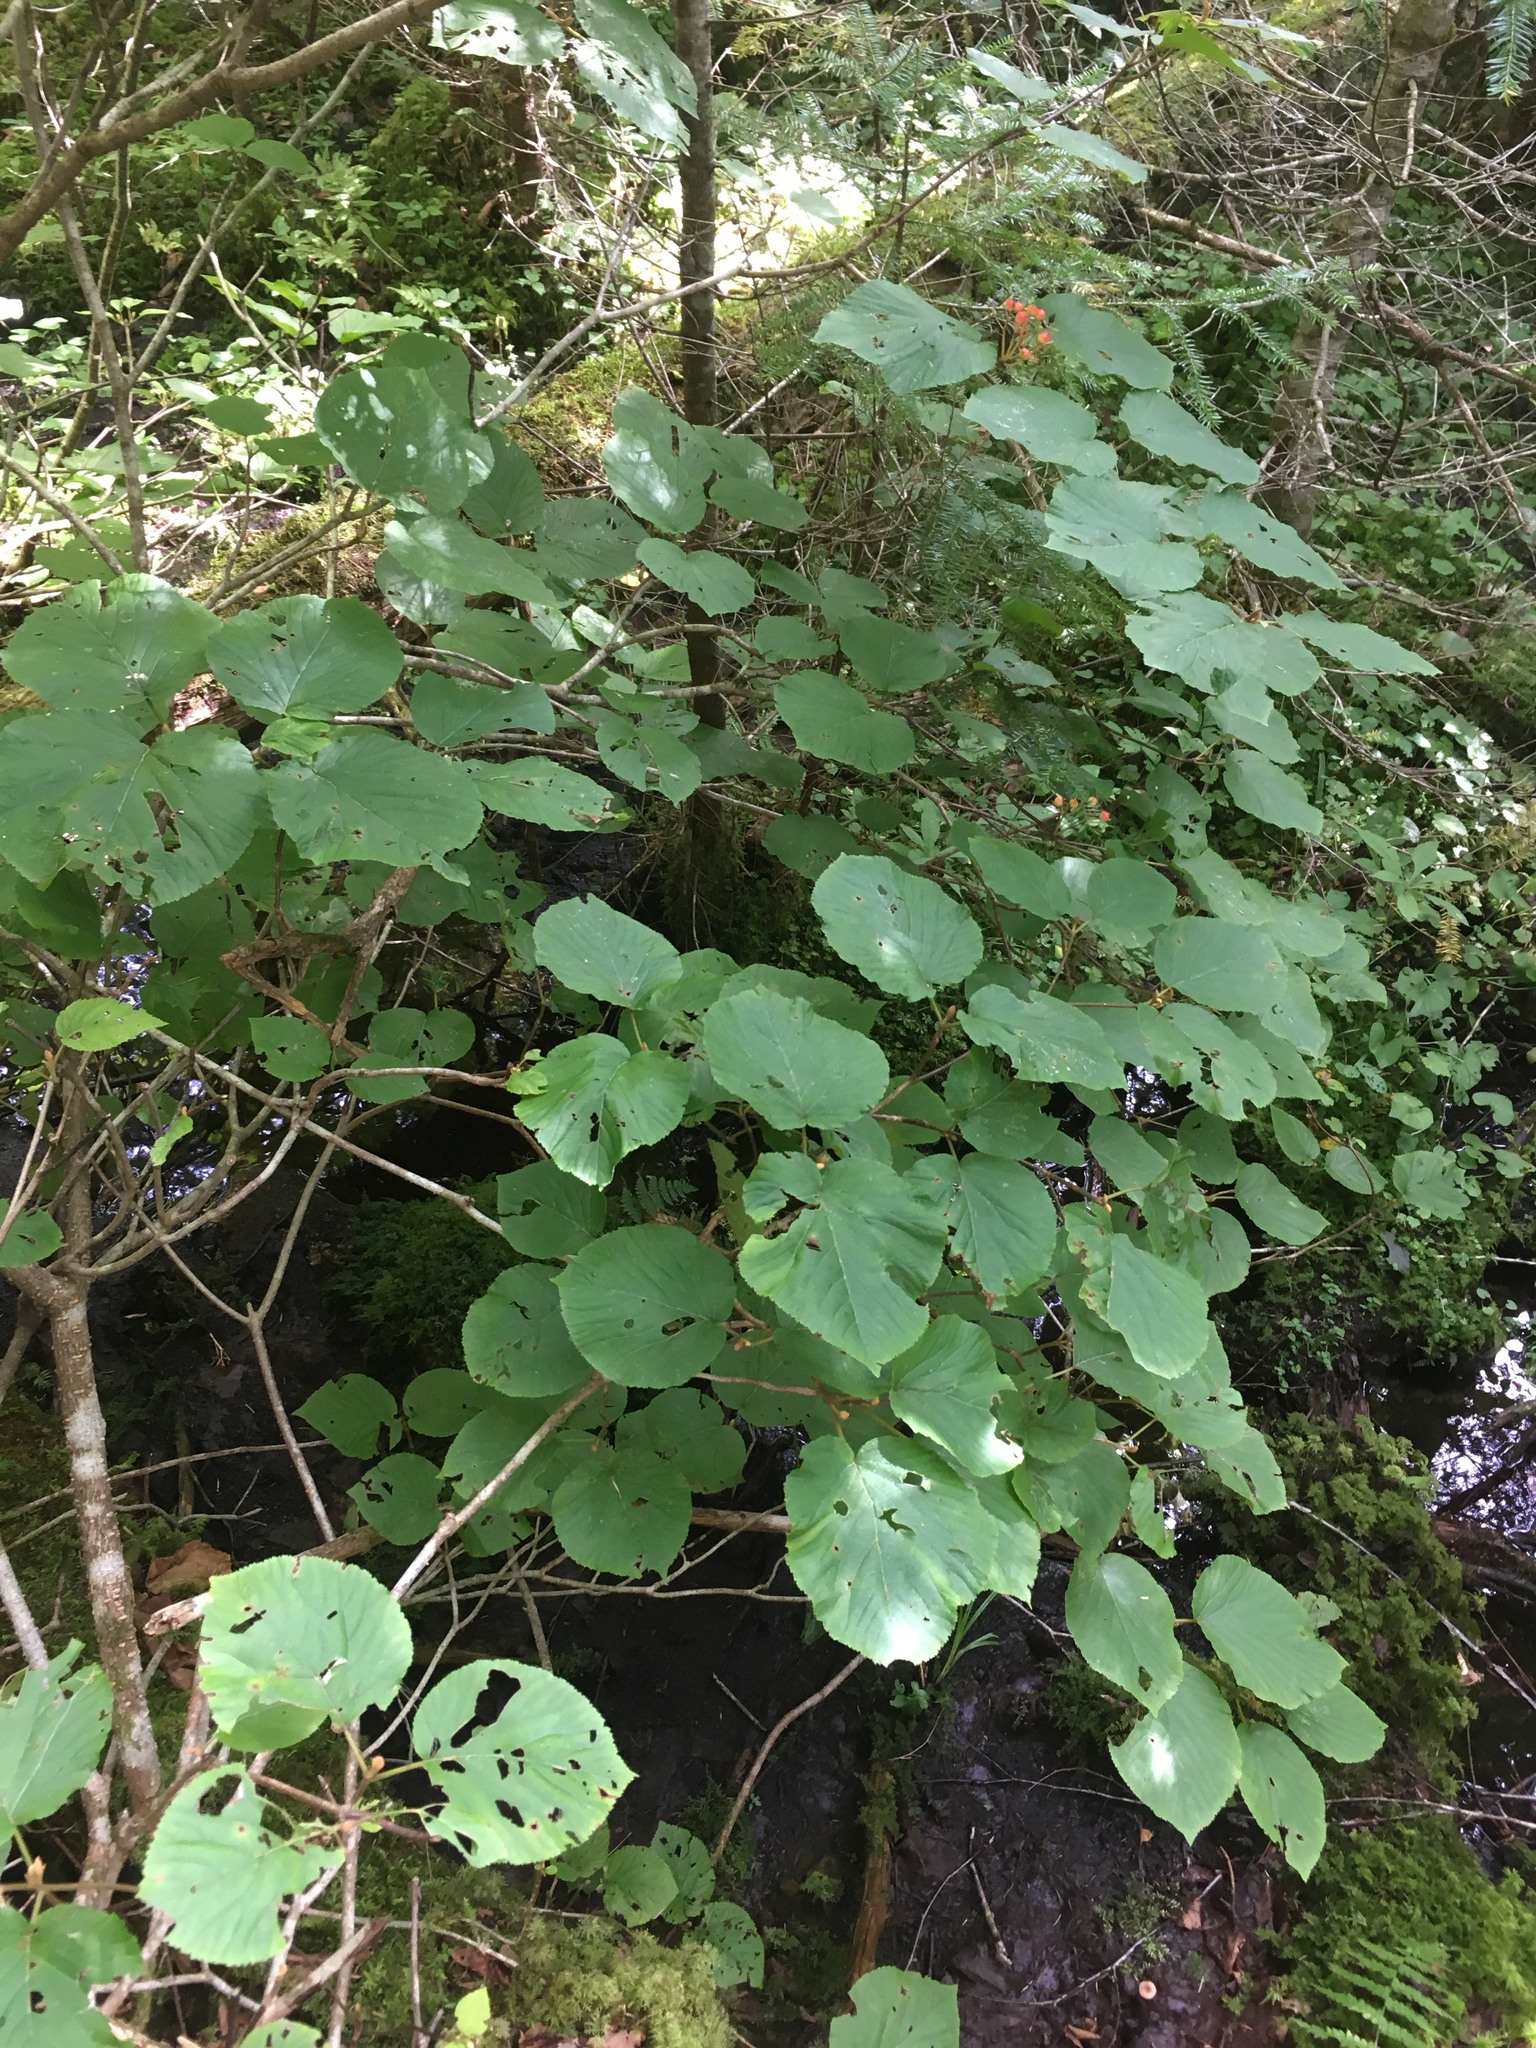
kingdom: Plantae
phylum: Tracheophyta
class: Magnoliopsida
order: Dipsacales
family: Viburnaceae
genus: Viburnum
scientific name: Viburnum lantanoides
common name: Hobblebush
